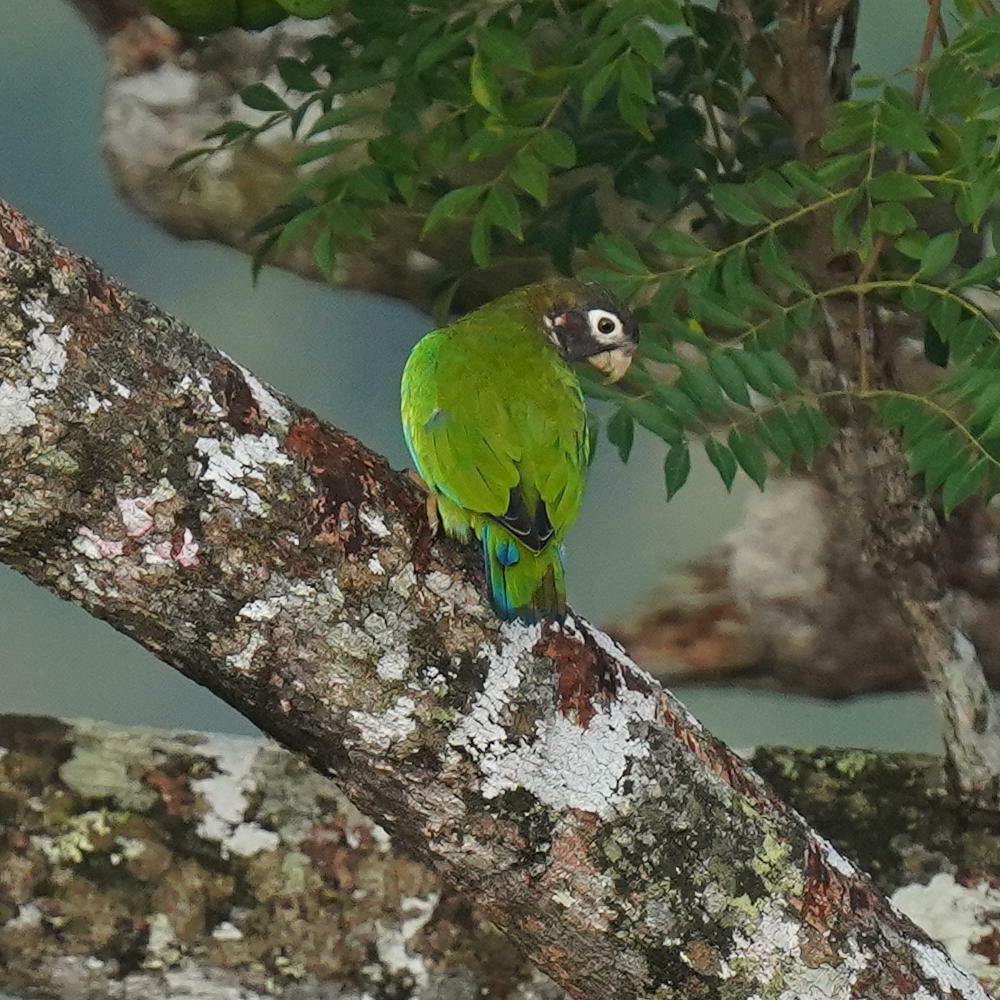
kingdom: Animalia
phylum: Chordata
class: Aves
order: Psittaciformes
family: Psittacidae
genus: Pionopsitta
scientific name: Pionopsitta haematotis
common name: Brown-hooded parrot
